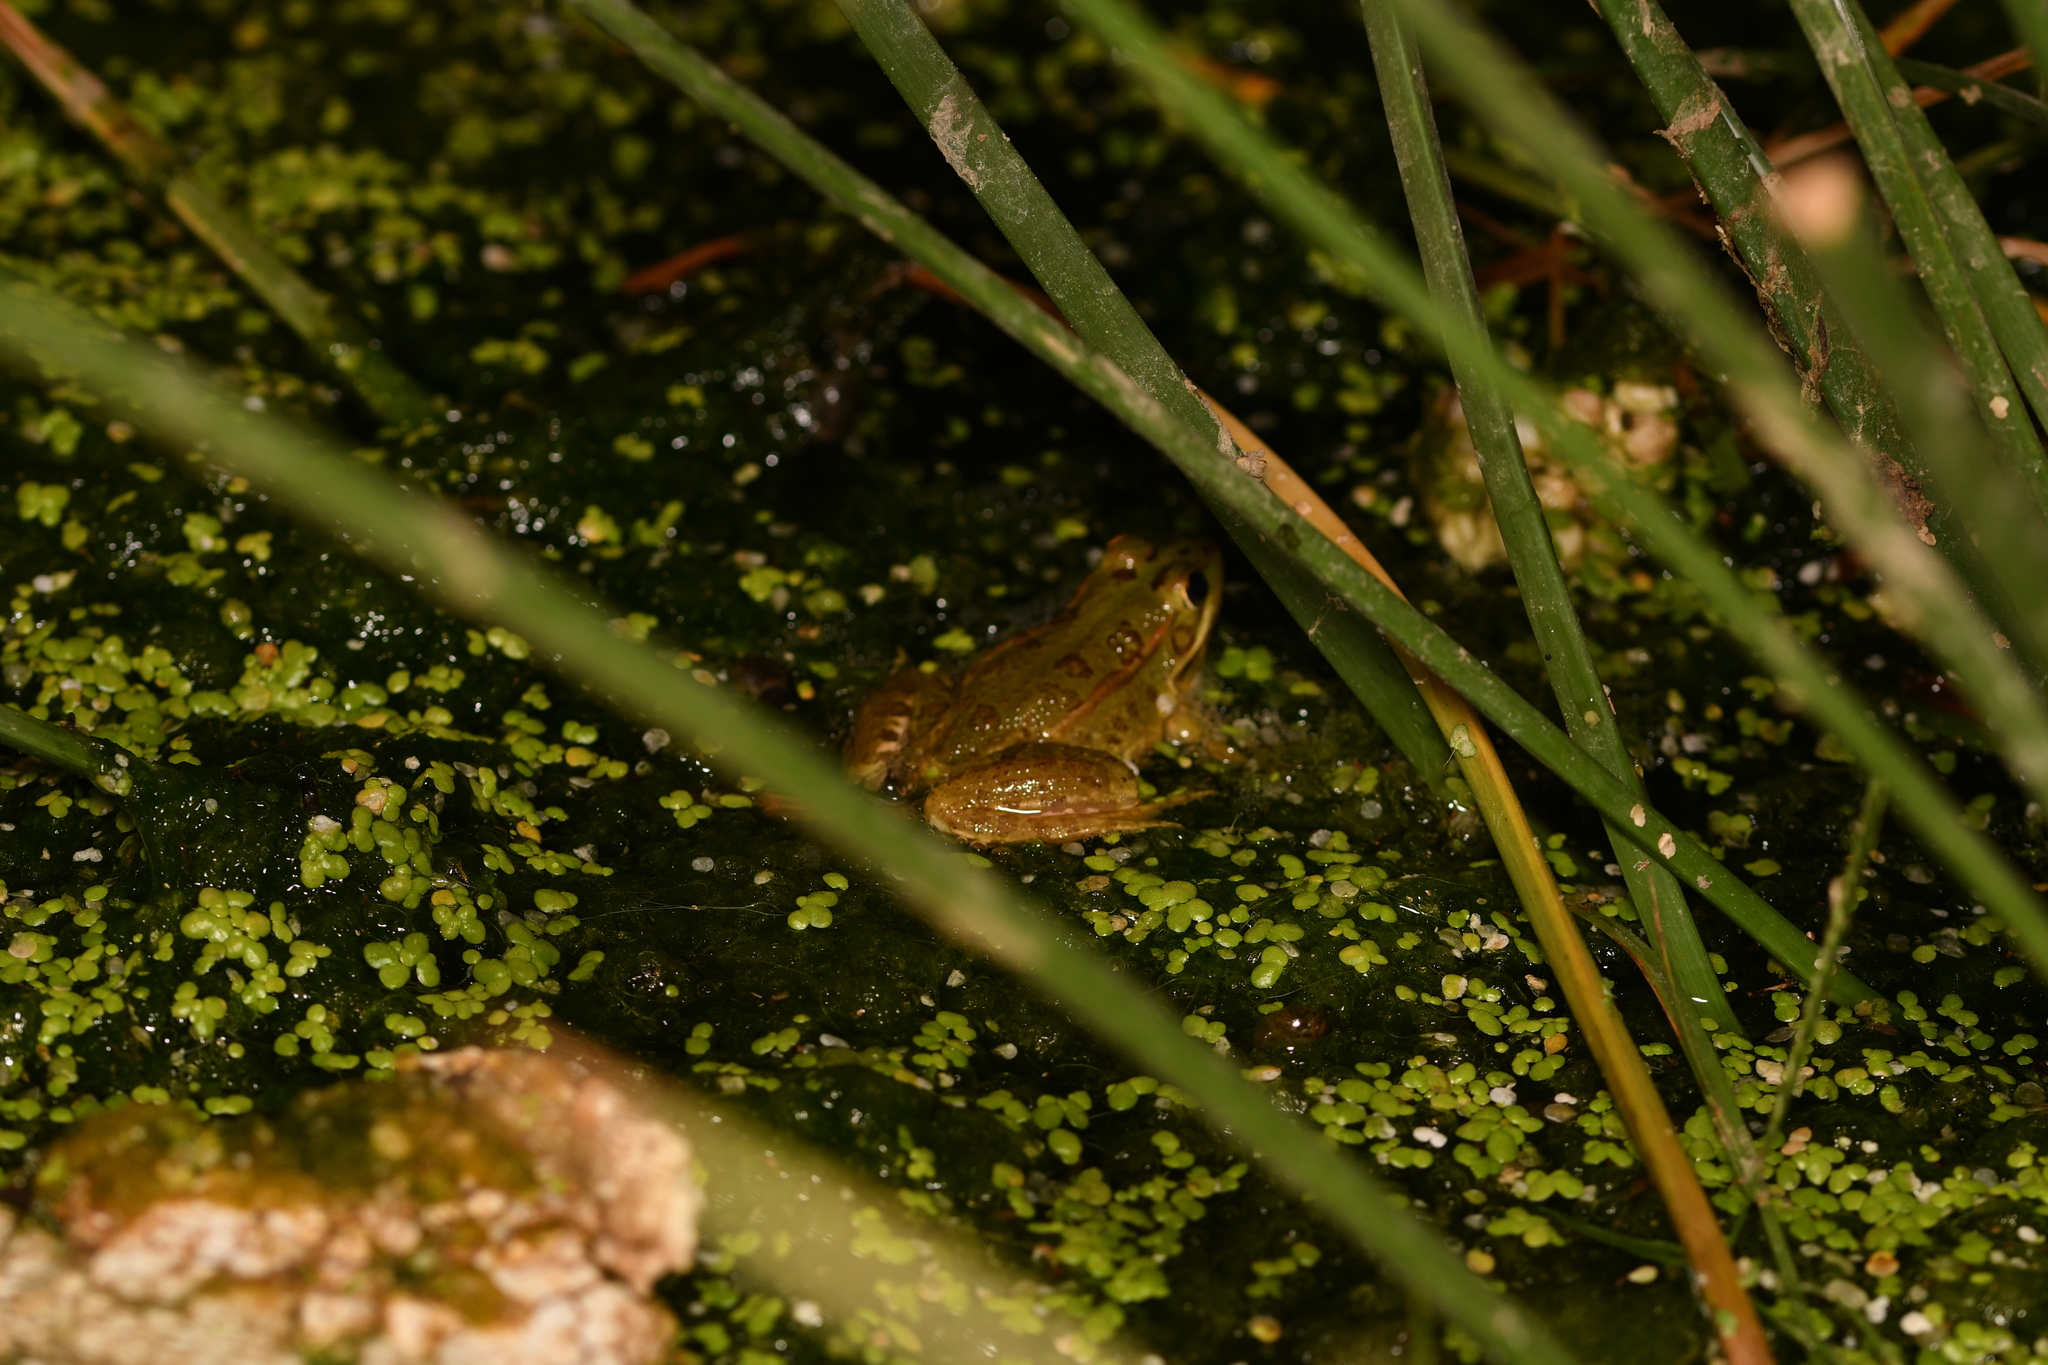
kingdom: Animalia
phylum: Chordata
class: Amphibia
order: Anura
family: Ranidae
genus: Pelophylax
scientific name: Pelophylax perezi
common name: Perez's frog
